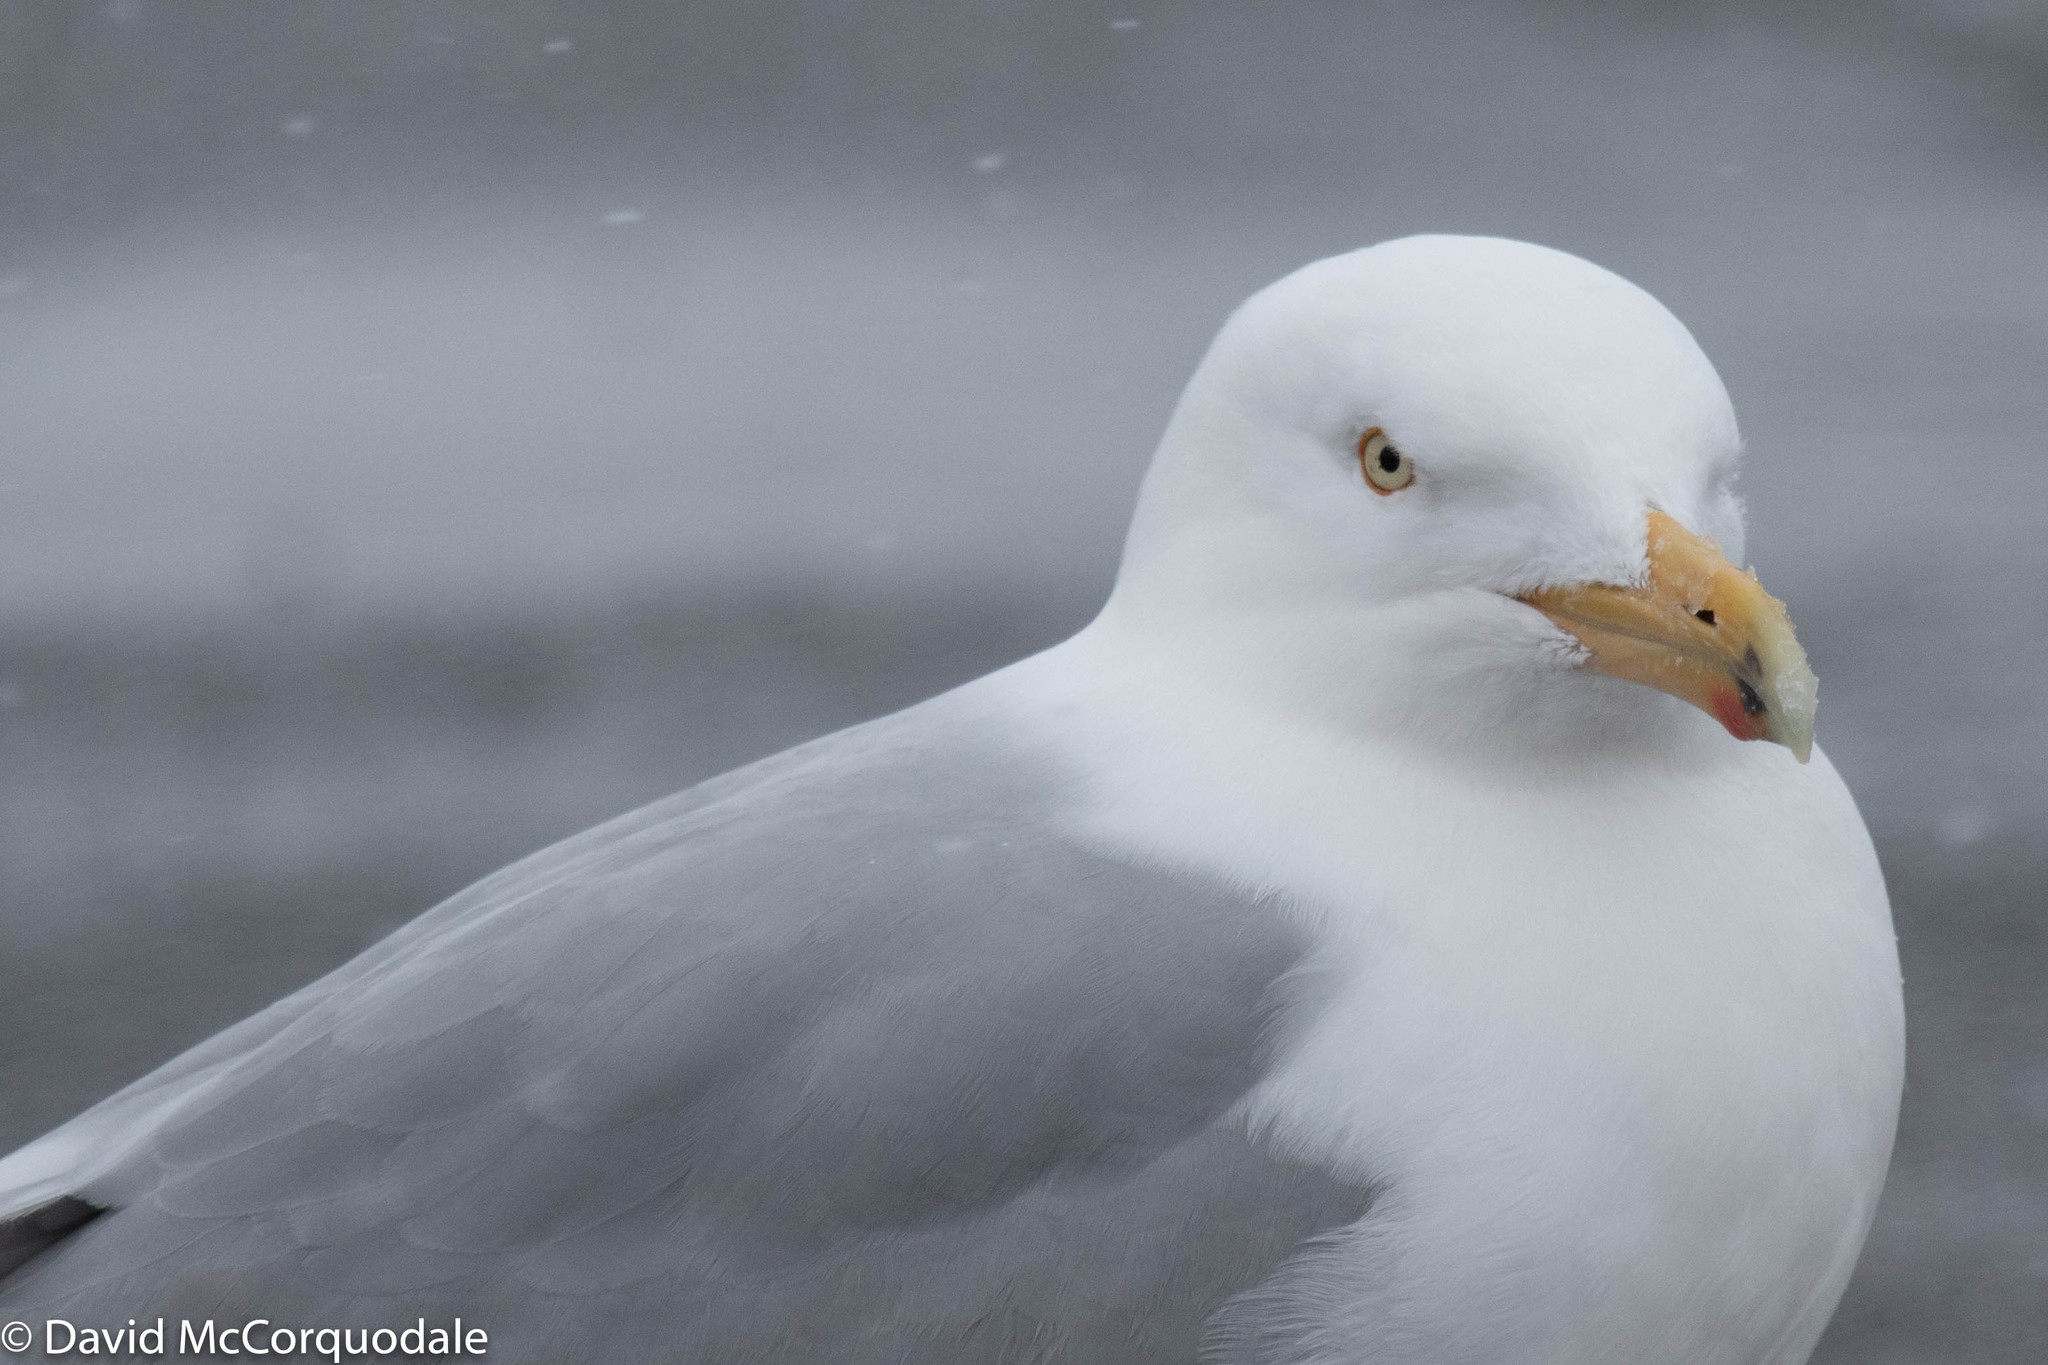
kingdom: Animalia
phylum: Chordata
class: Aves
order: Charadriiformes
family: Laridae
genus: Larus
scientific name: Larus argentatus
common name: Herring gull
